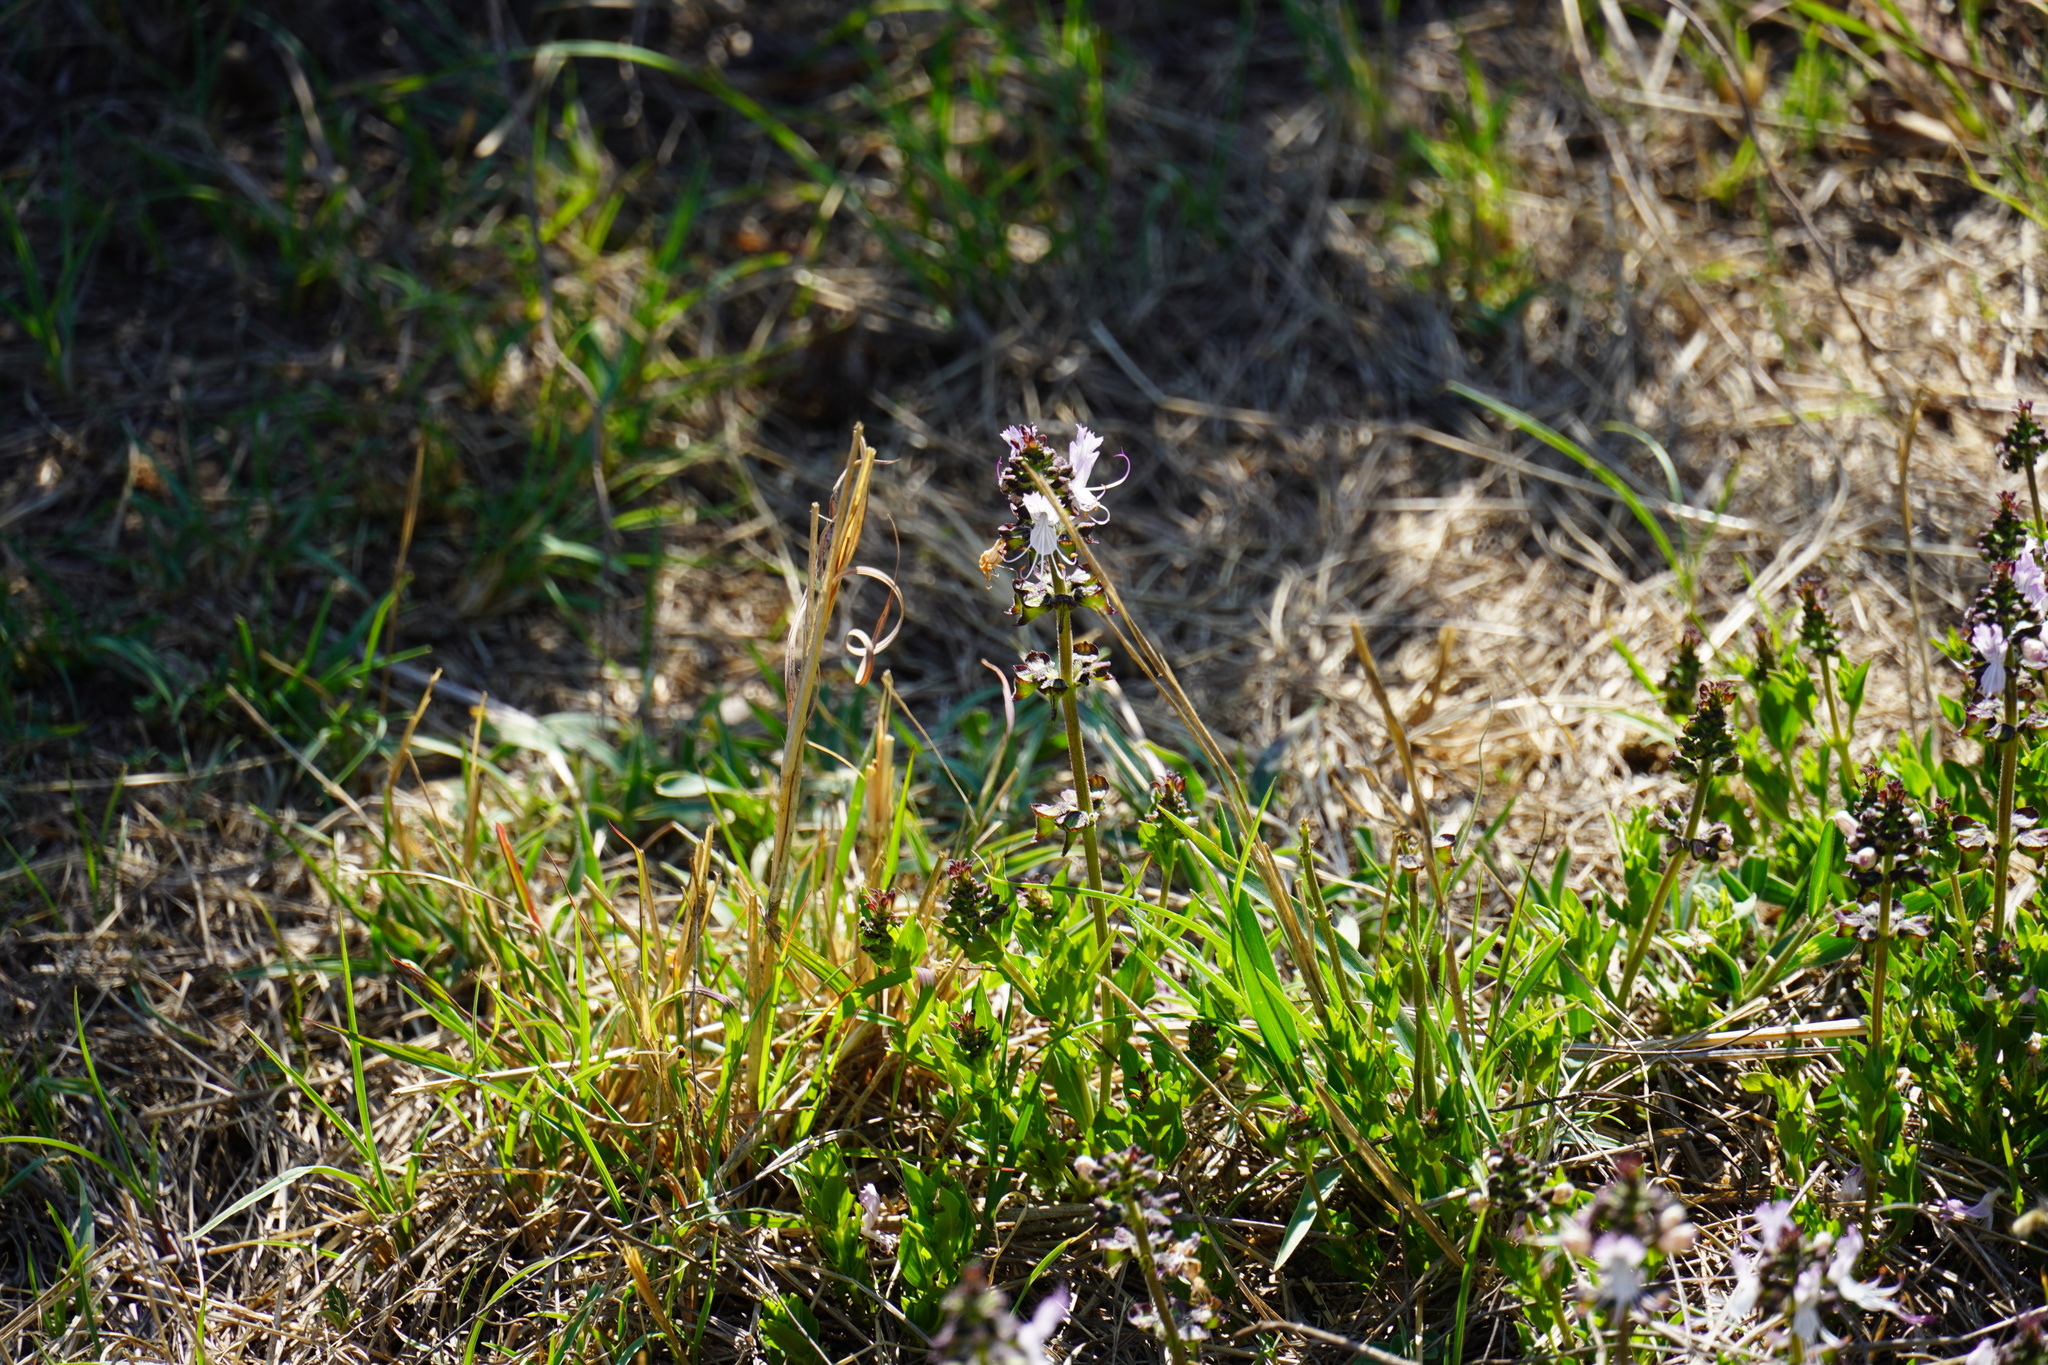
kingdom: Plantae
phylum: Tracheophyta
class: Magnoliopsida
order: Lamiales
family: Lamiaceae
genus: Ocimum
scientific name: Ocimum obovatum
